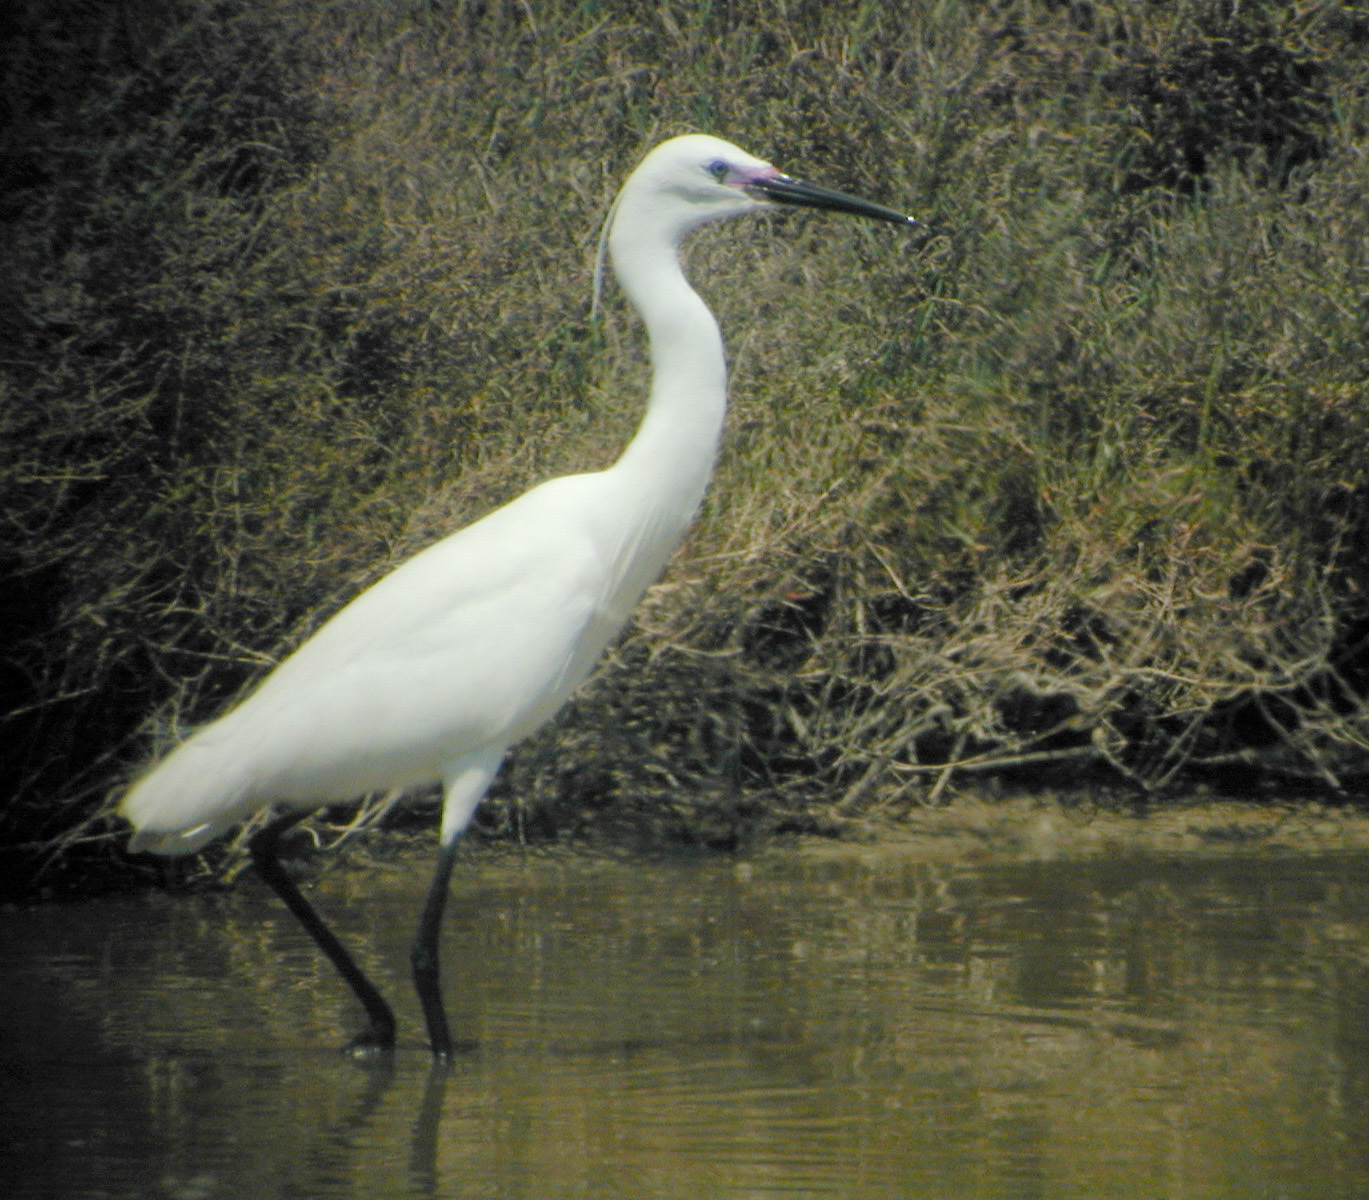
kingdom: Animalia
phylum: Chordata
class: Aves
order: Pelecaniformes
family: Ardeidae
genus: Egretta
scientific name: Egretta garzetta
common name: Little egret
